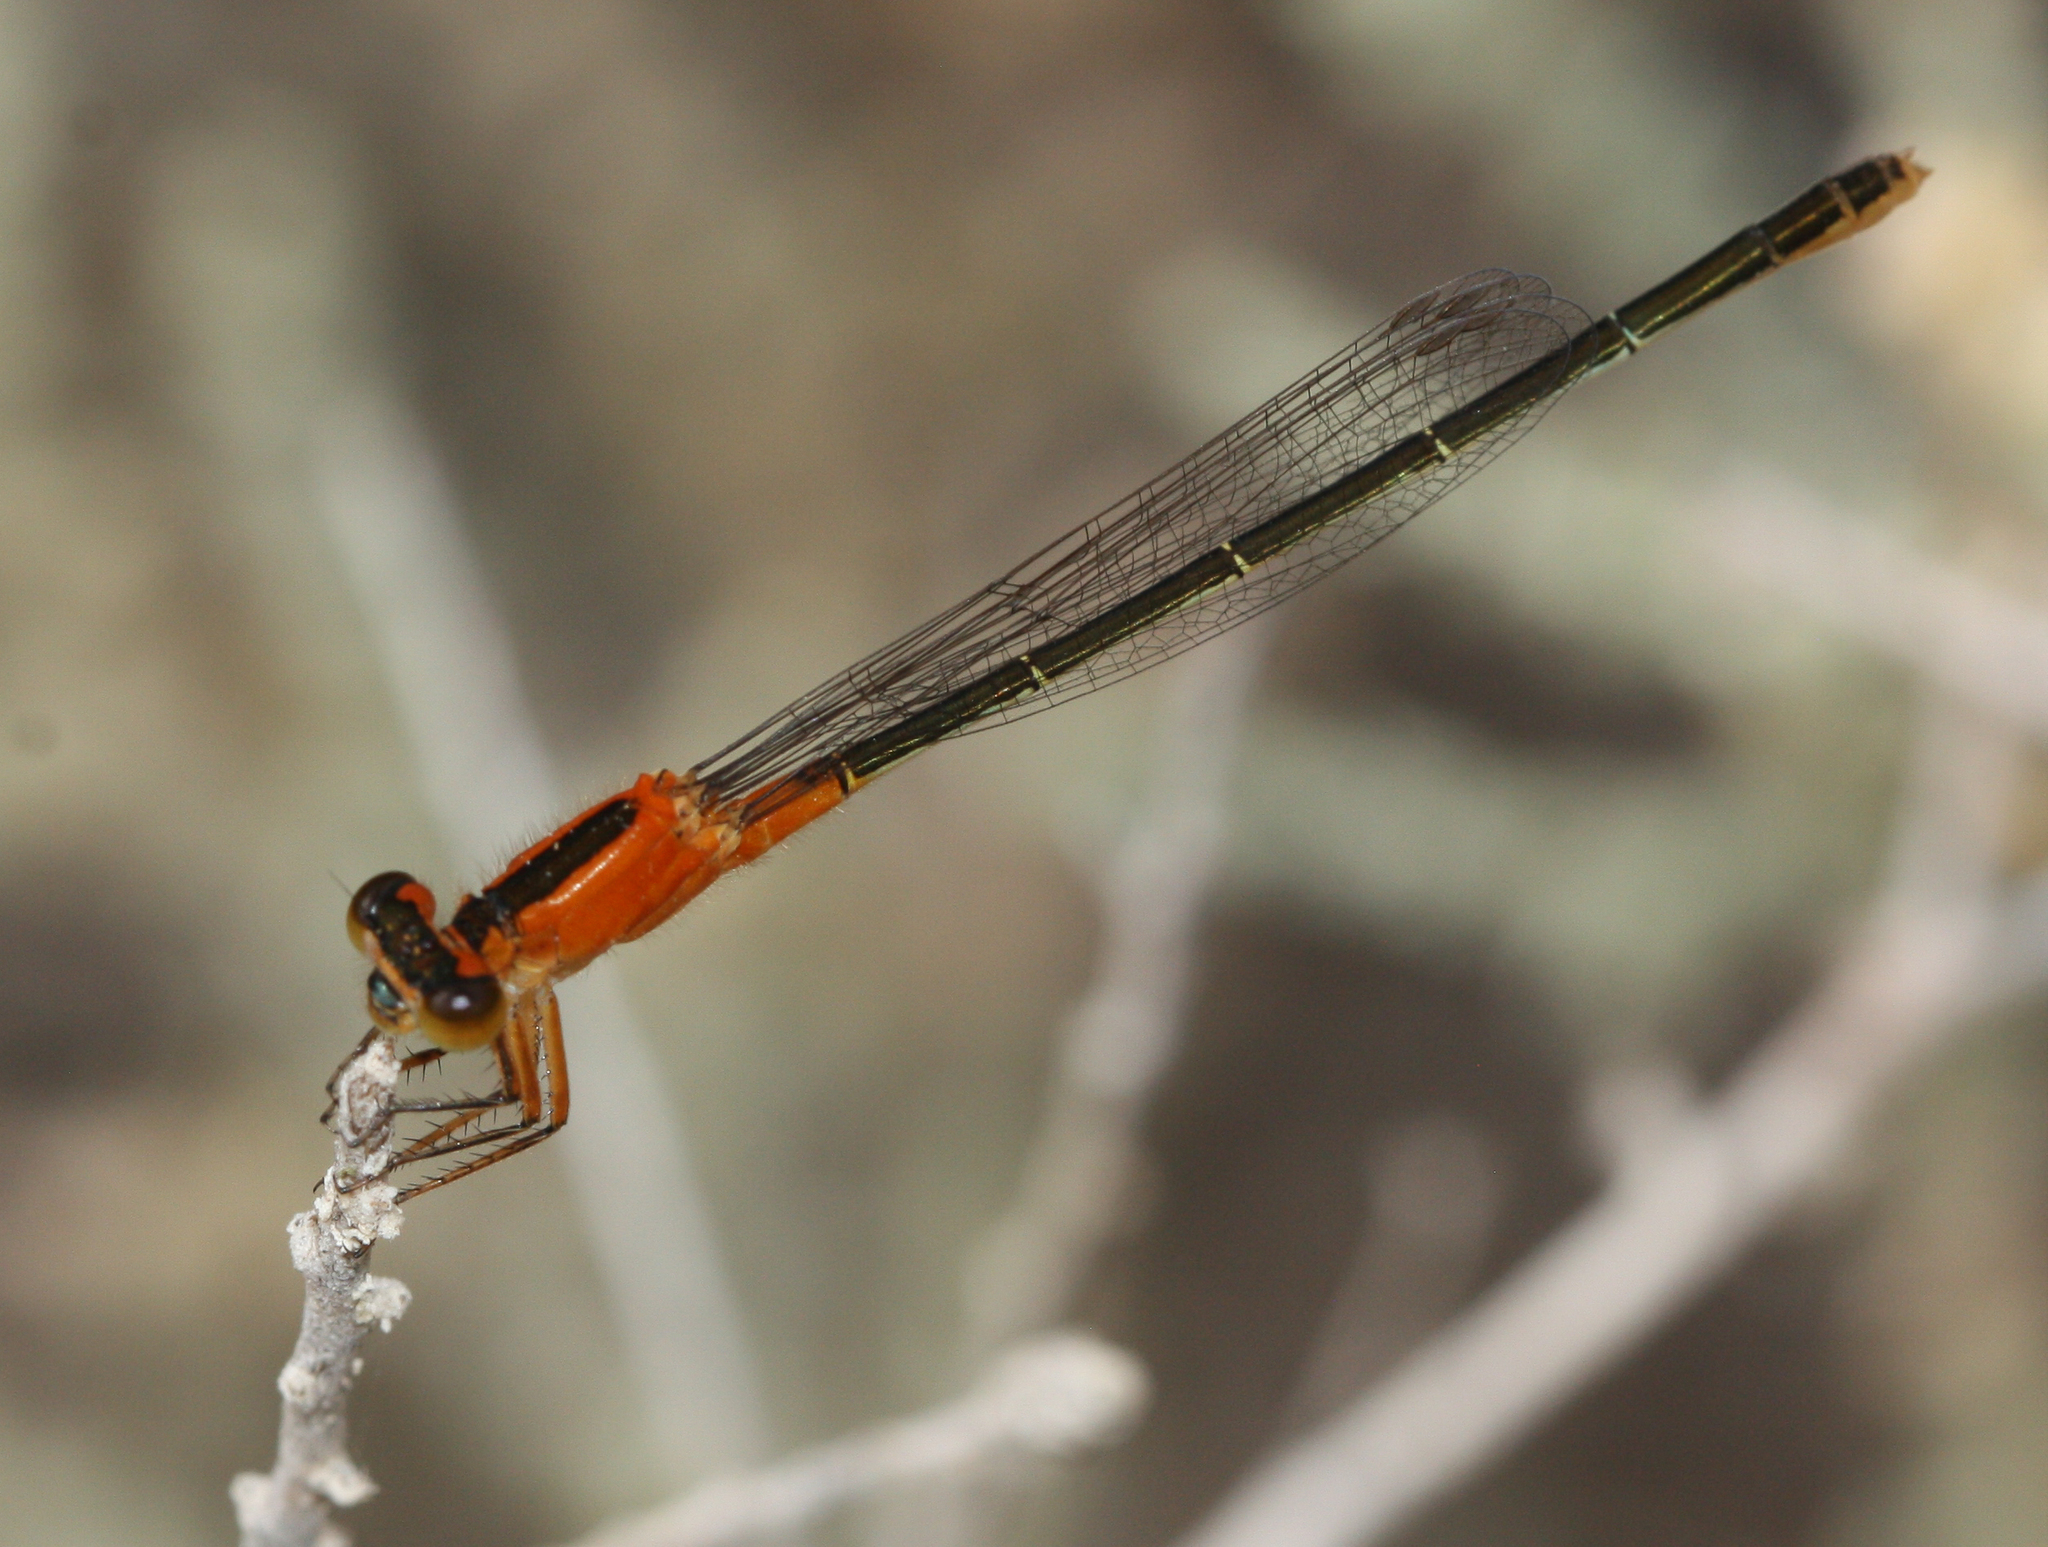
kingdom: Animalia
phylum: Arthropoda
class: Insecta
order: Odonata
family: Coenagrionidae
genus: Ischnura
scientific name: Ischnura ramburii
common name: Rambur's forktail
